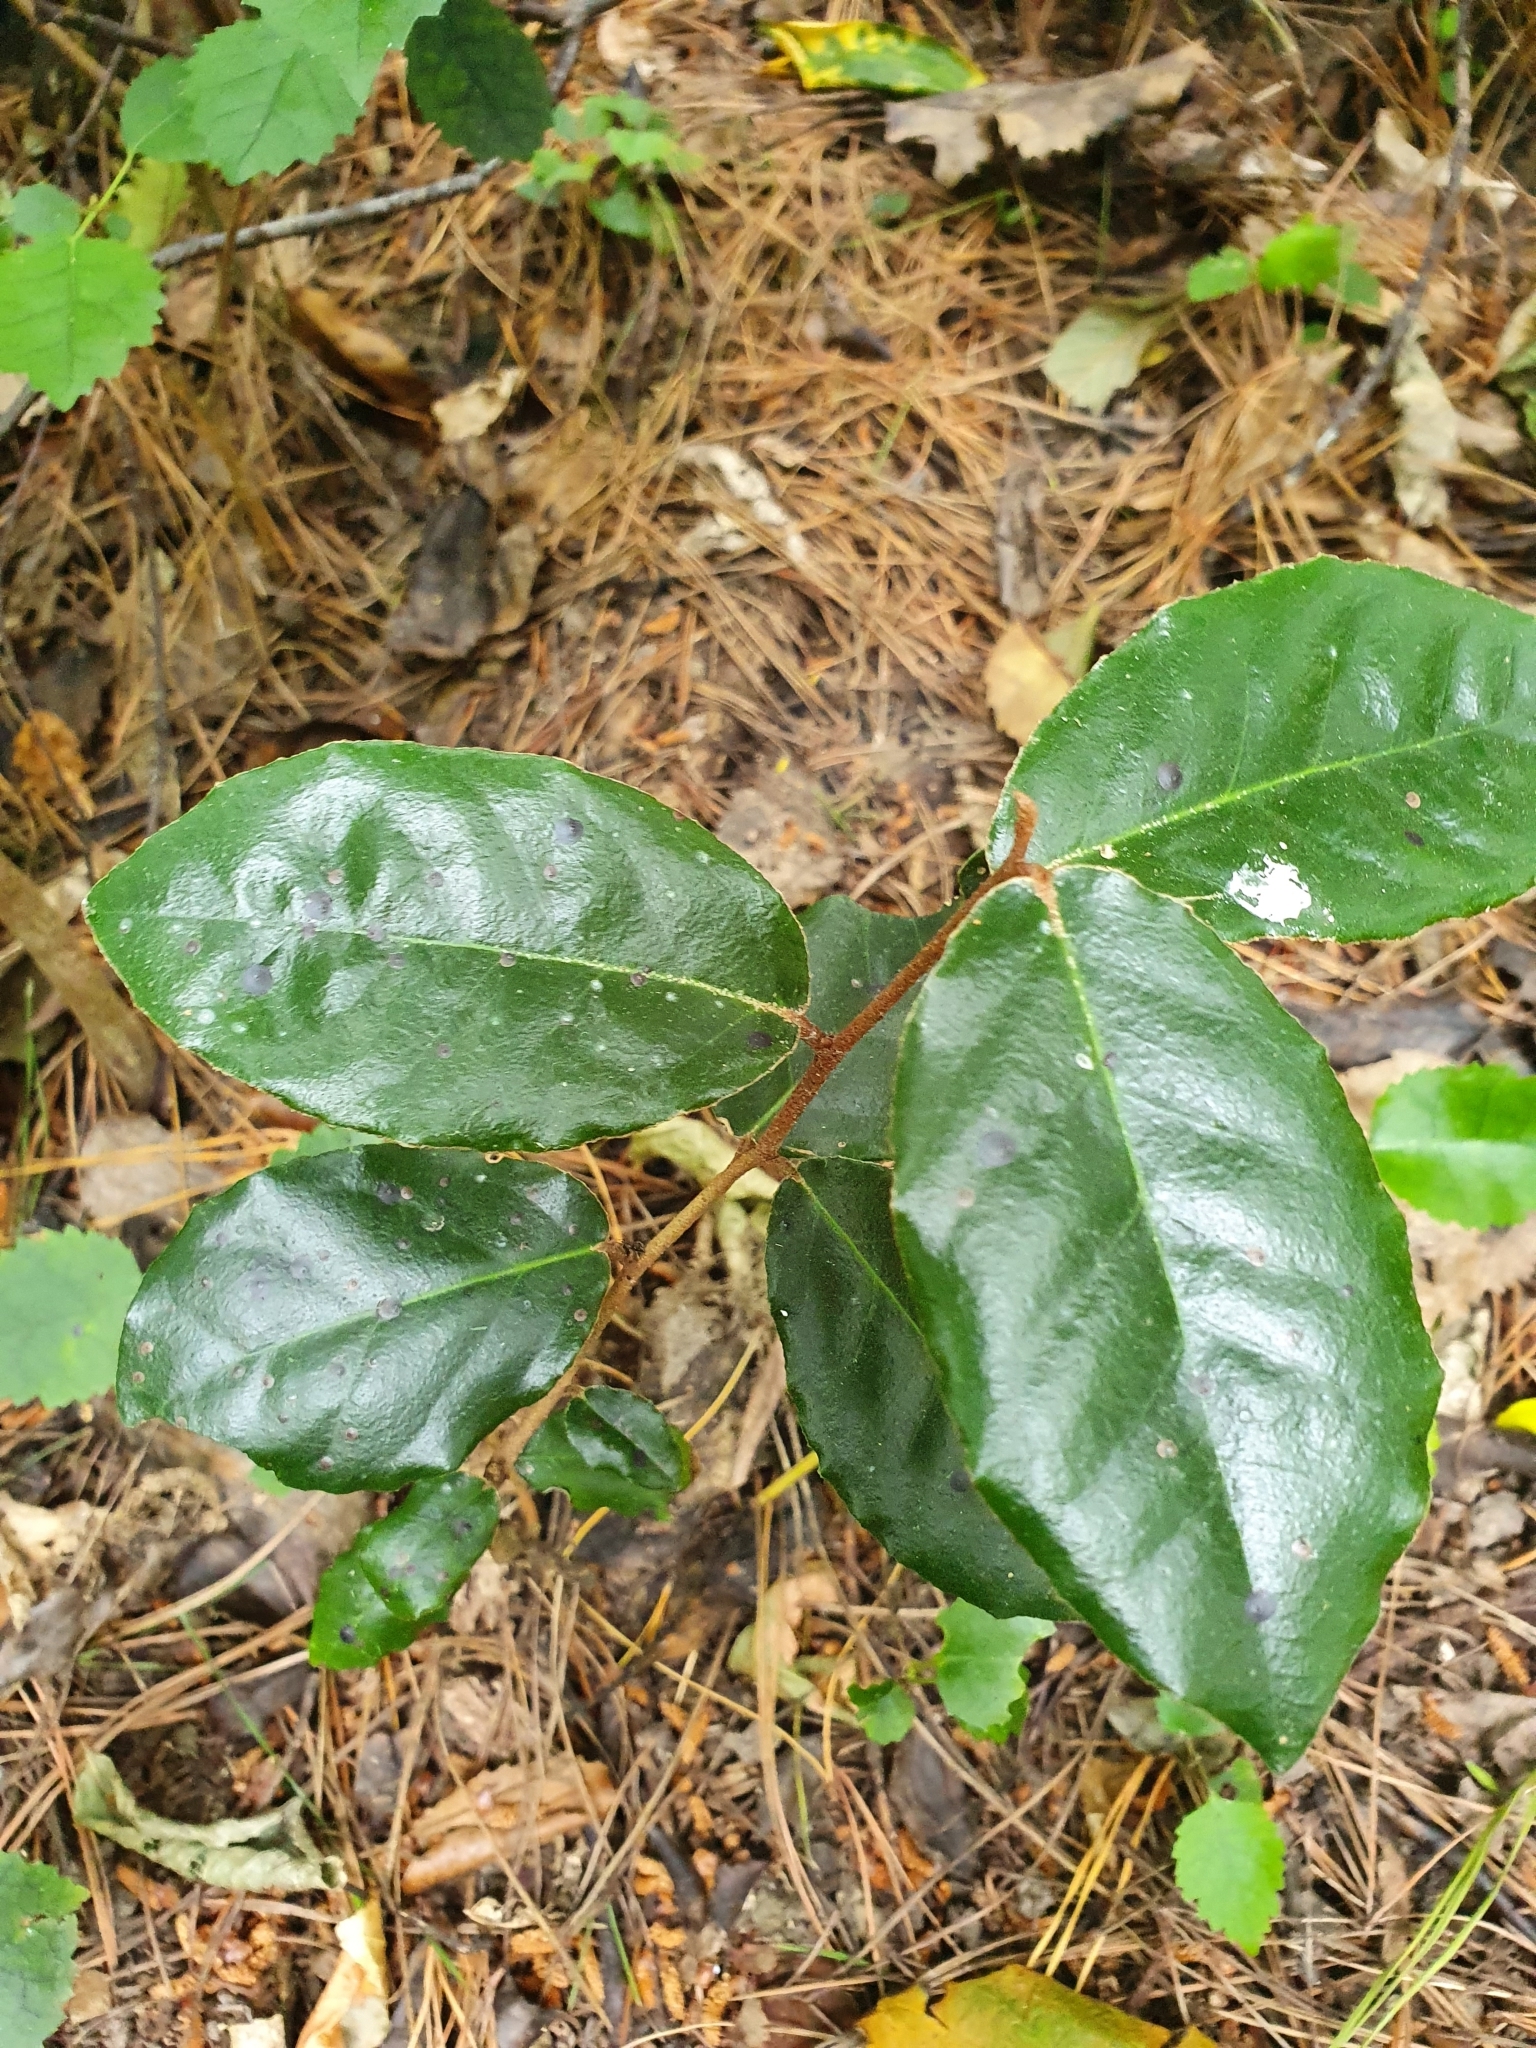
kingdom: Plantae
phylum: Tracheophyta
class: Magnoliopsida
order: Laurales
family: Lauraceae
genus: Laurus
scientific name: Laurus nobilis
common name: Bay
